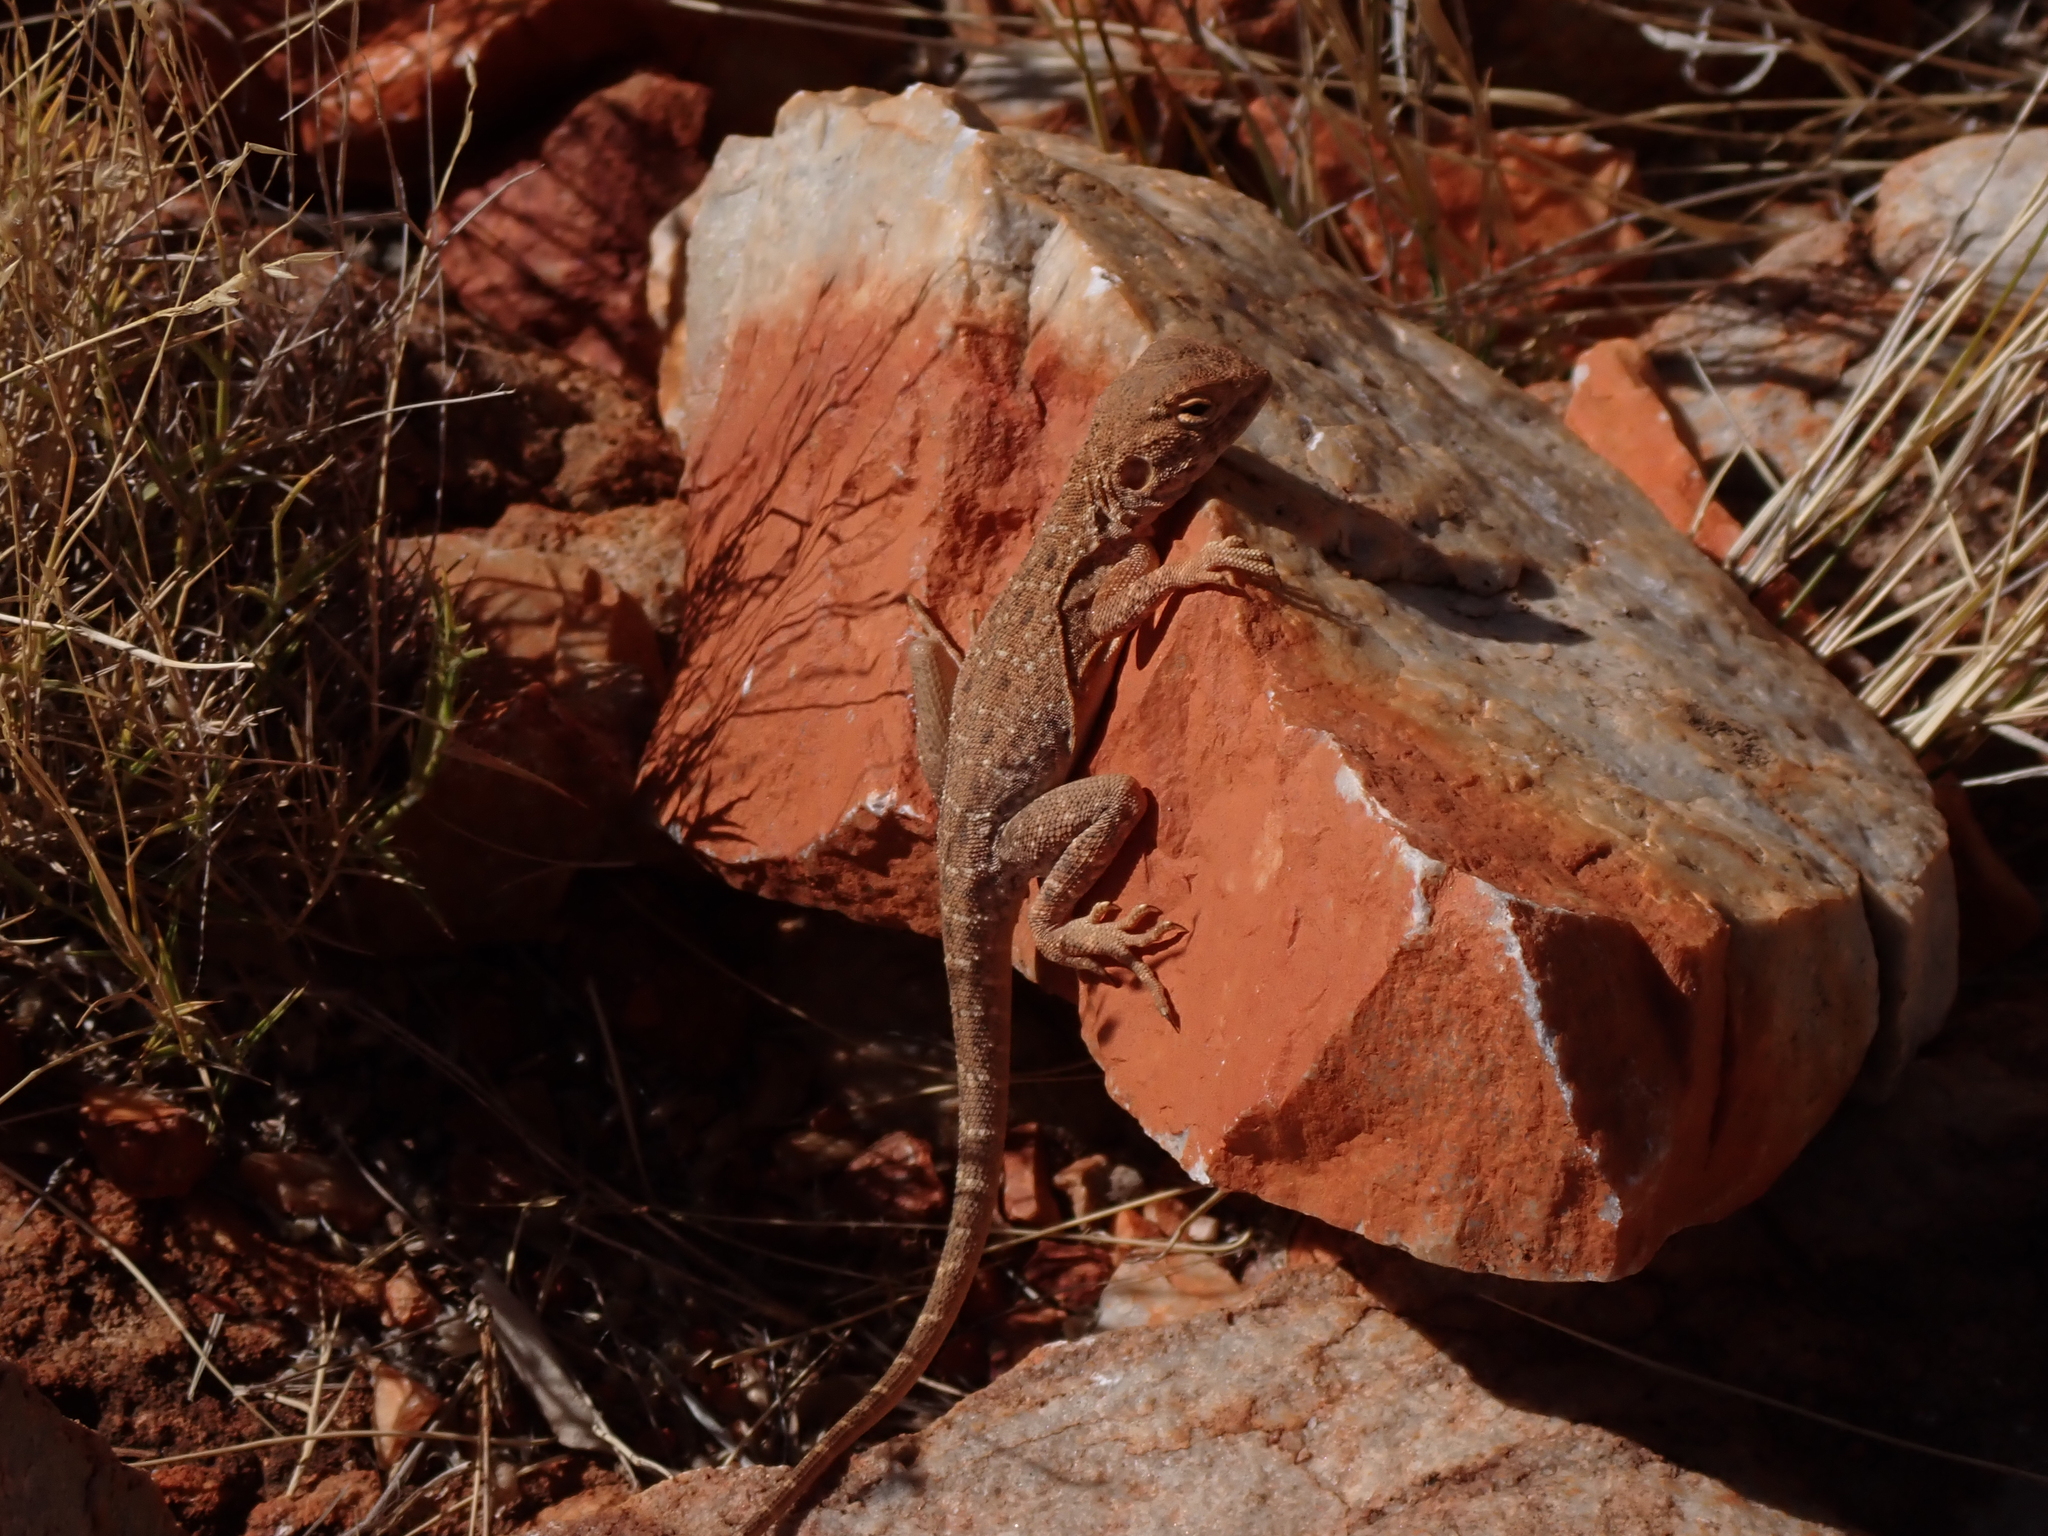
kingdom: Animalia
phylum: Chordata
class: Squamata
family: Agamidae
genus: Ctenophorus
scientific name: Ctenophorus slateri
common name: Slater’s dragon
